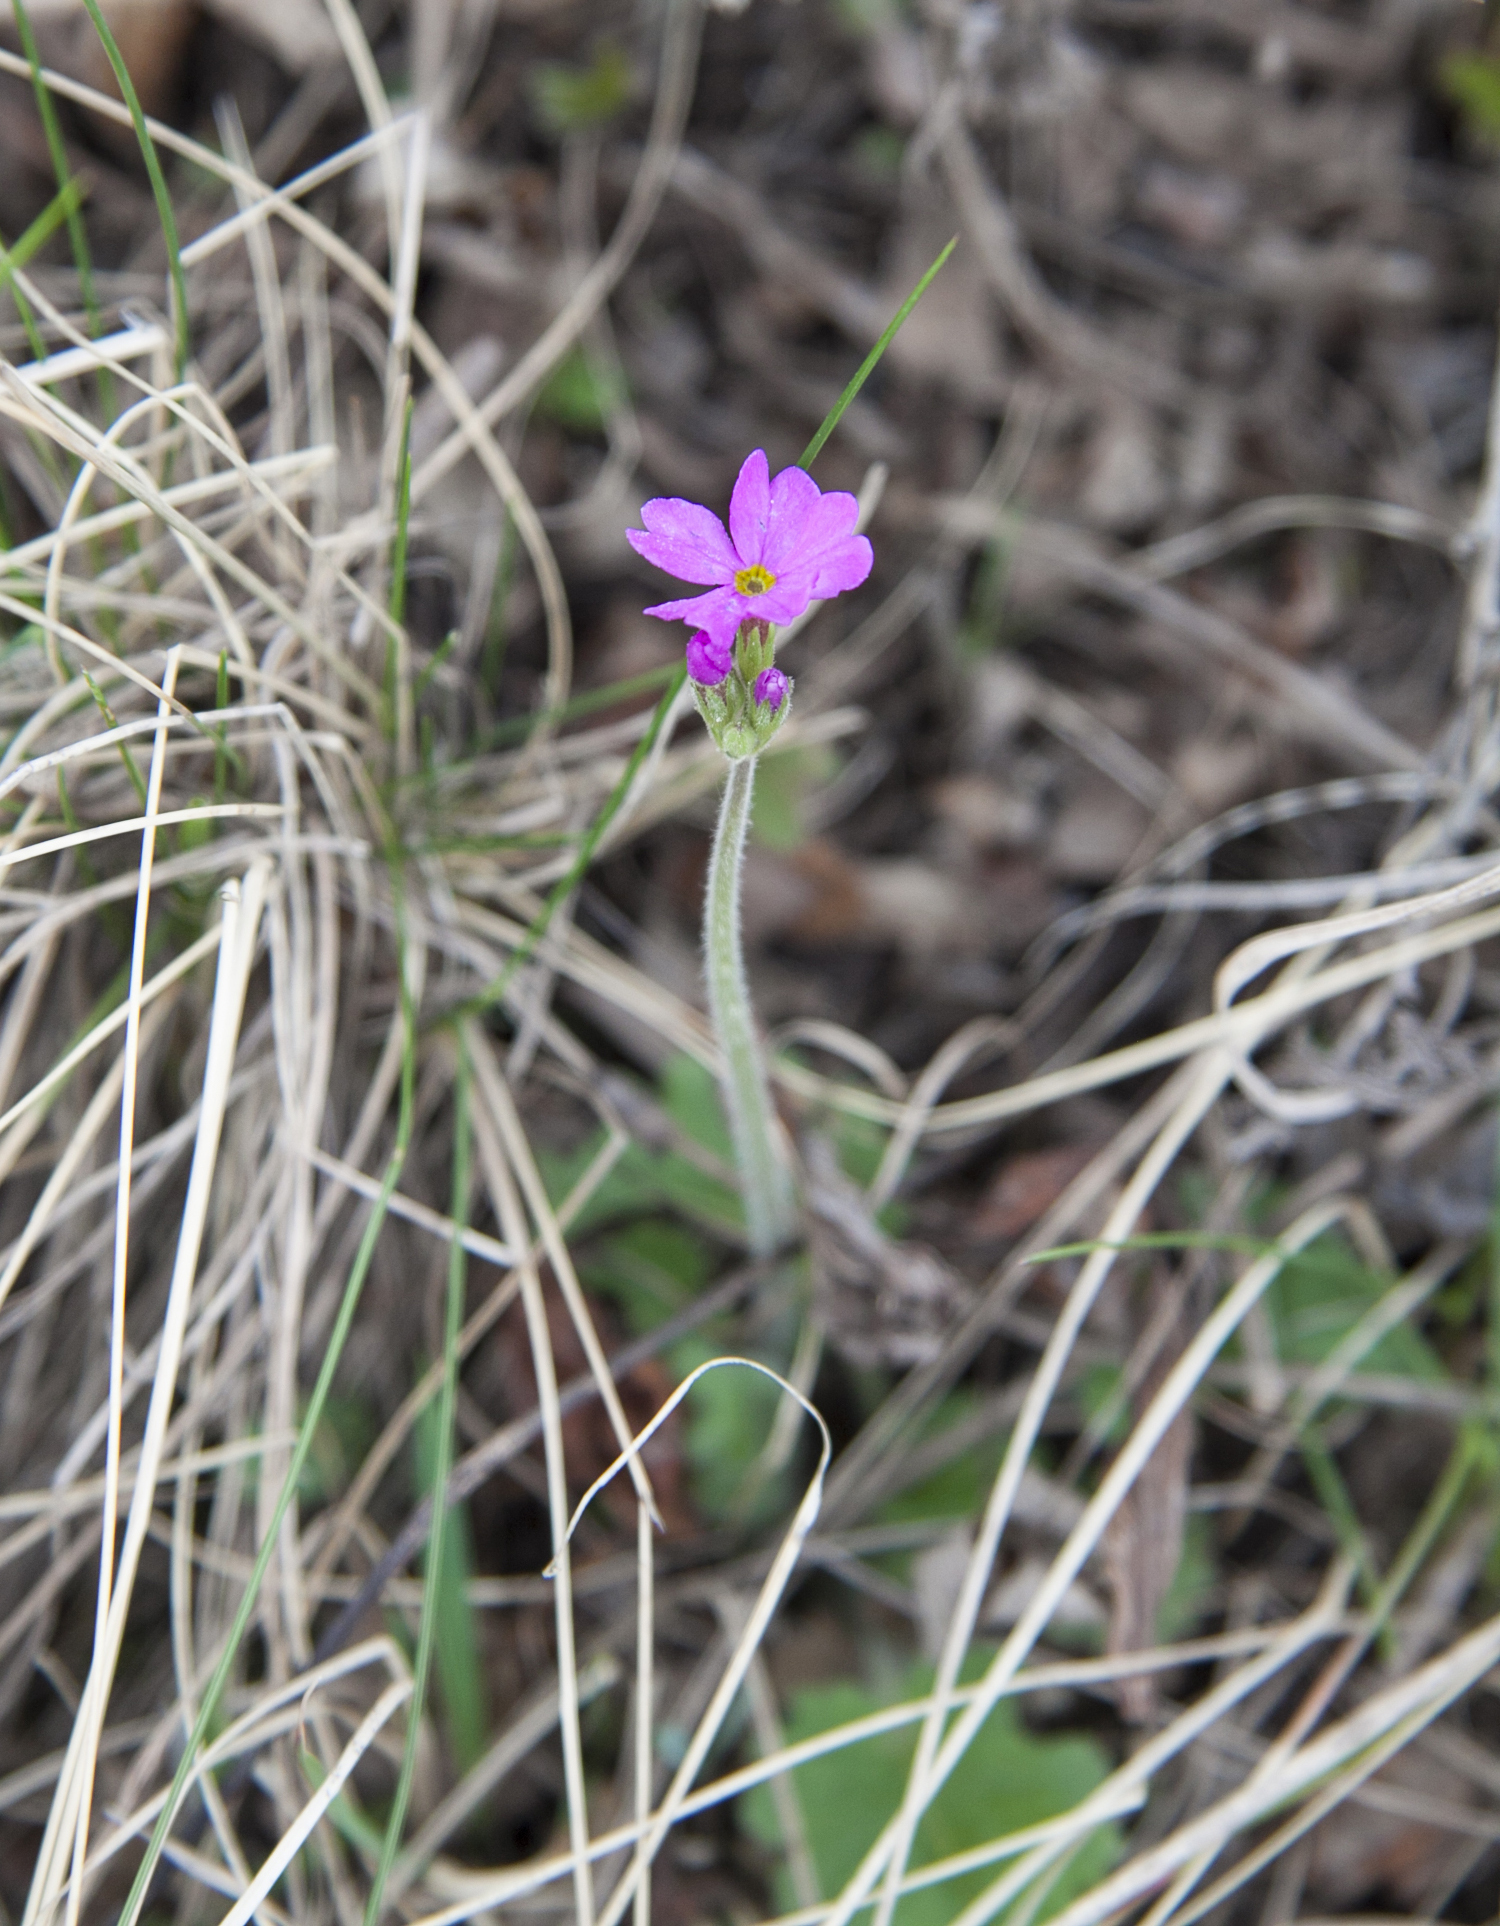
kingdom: Plantae
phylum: Tracheophyta
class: Magnoliopsida
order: Ericales
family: Primulaceae
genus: Primula
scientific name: Primula cortusoides
